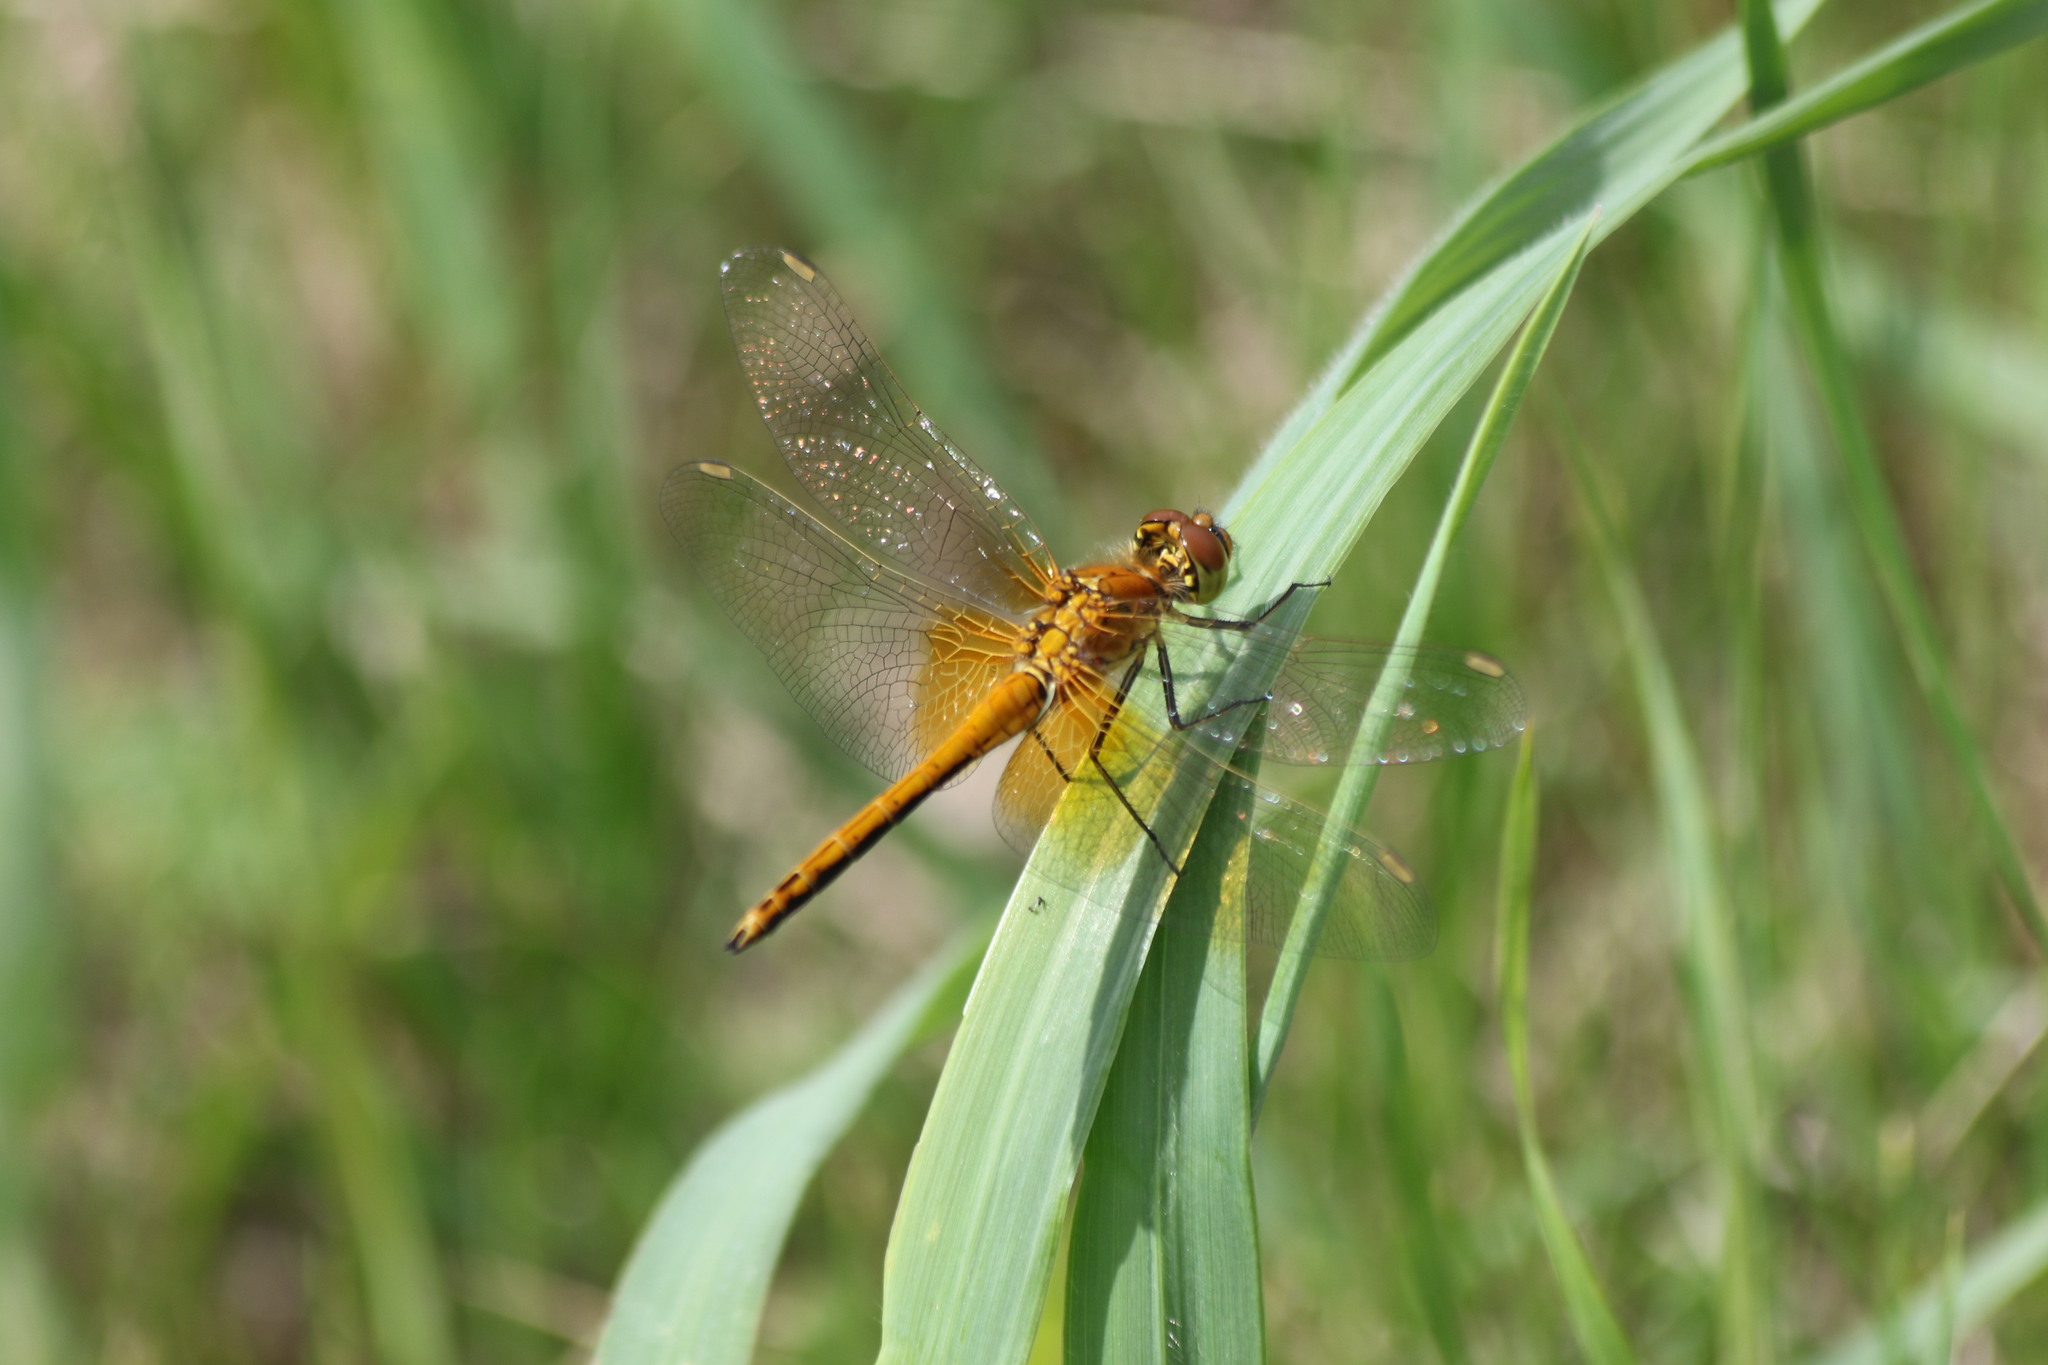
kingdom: Animalia
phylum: Arthropoda
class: Insecta
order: Odonata
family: Libellulidae
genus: Sympetrum
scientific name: Sympetrum flaveolum
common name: Yellow-winged darter
